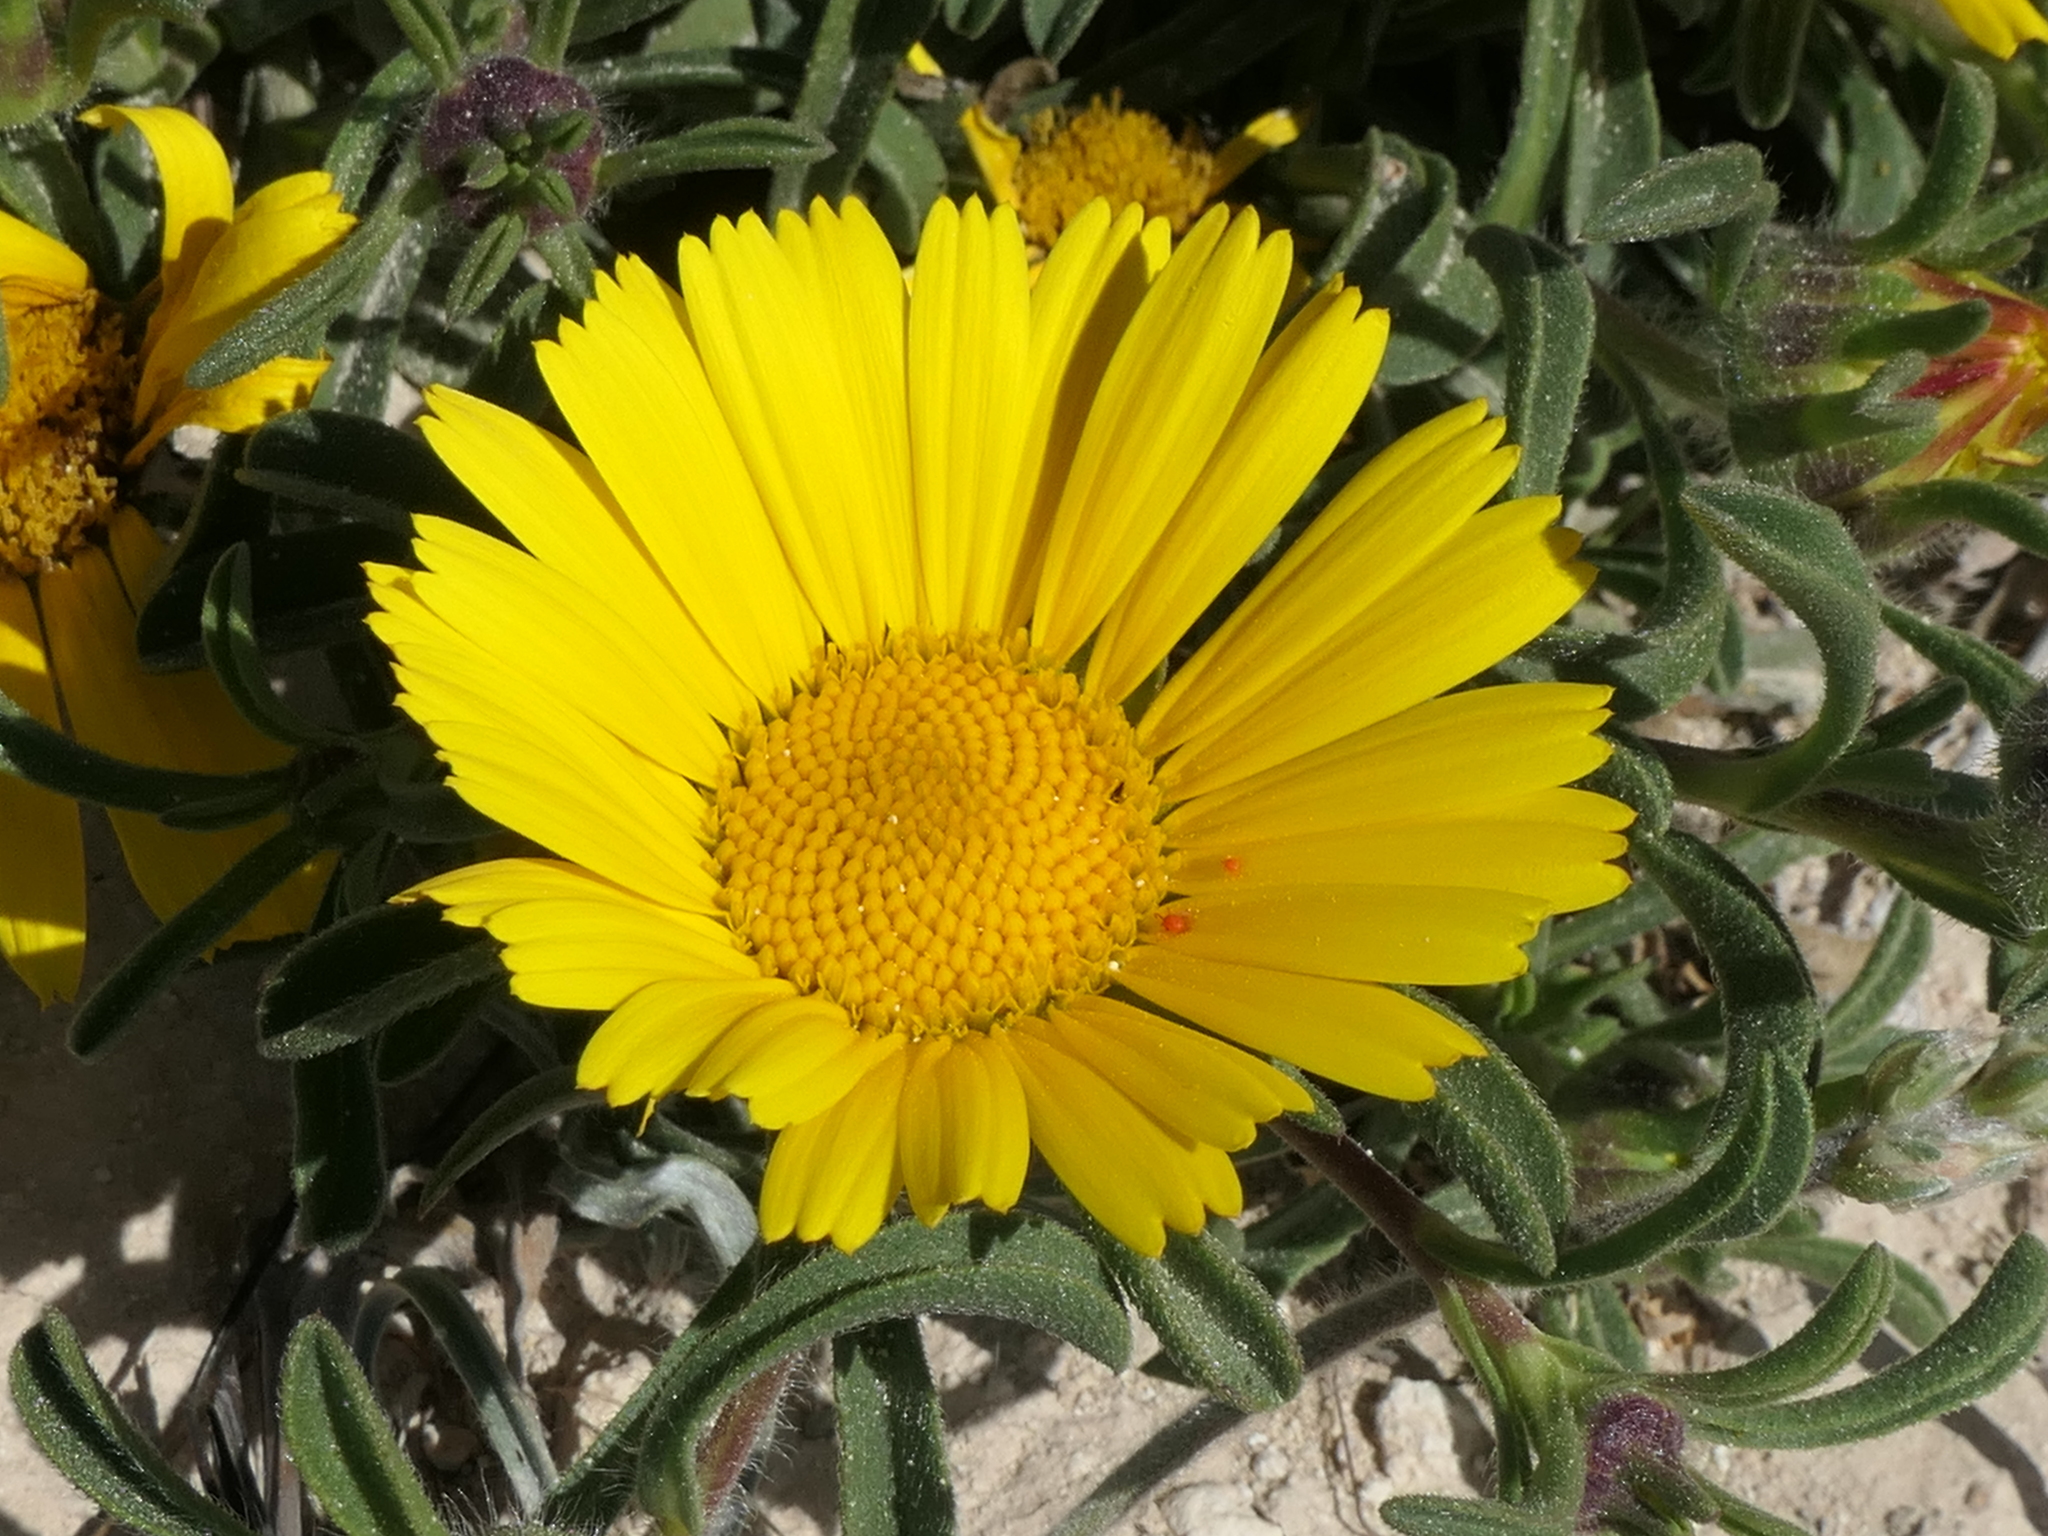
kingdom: Plantae
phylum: Tracheophyta
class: Magnoliopsida
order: Asterales
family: Asteraceae
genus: Pallenis
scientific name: Pallenis maritima
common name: Golden coin daisy
